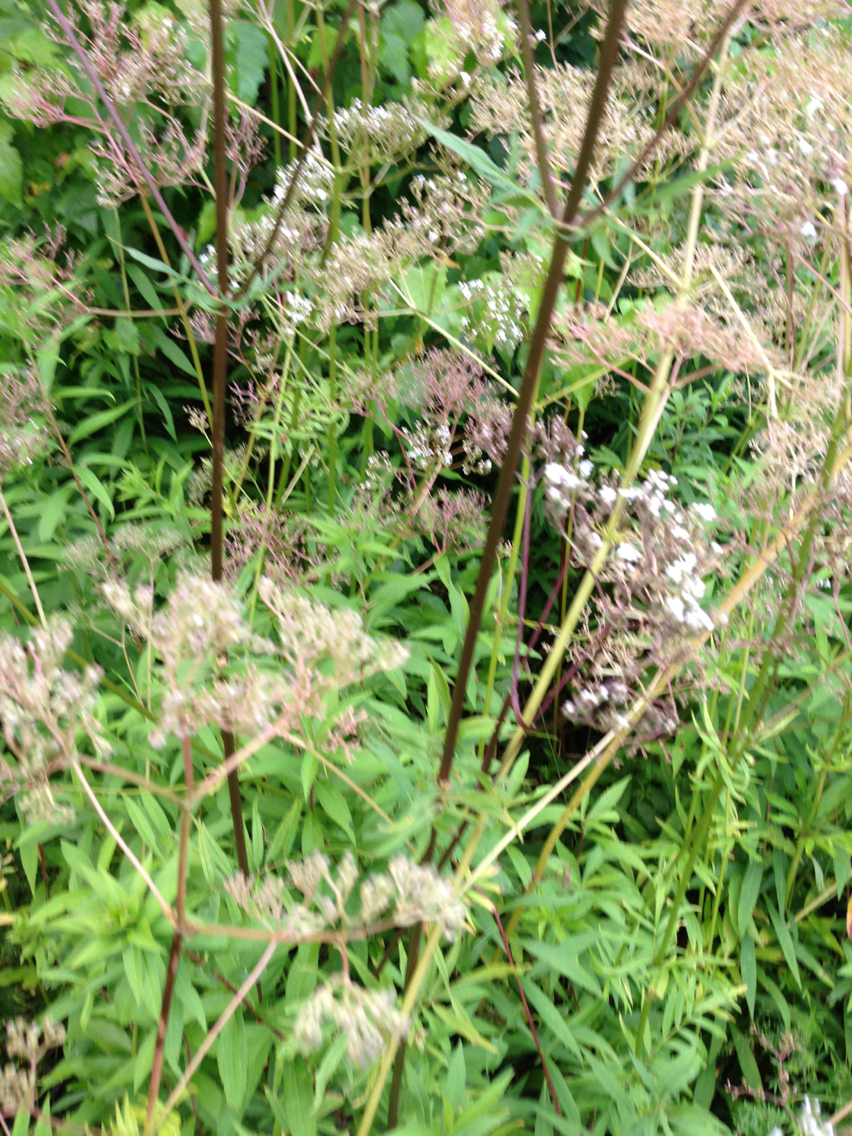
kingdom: Plantae
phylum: Tracheophyta
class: Magnoliopsida
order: Dipsacales
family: Caprifoliaceae
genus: Valeriana
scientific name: Valeriana officinalis
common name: Common valerian
